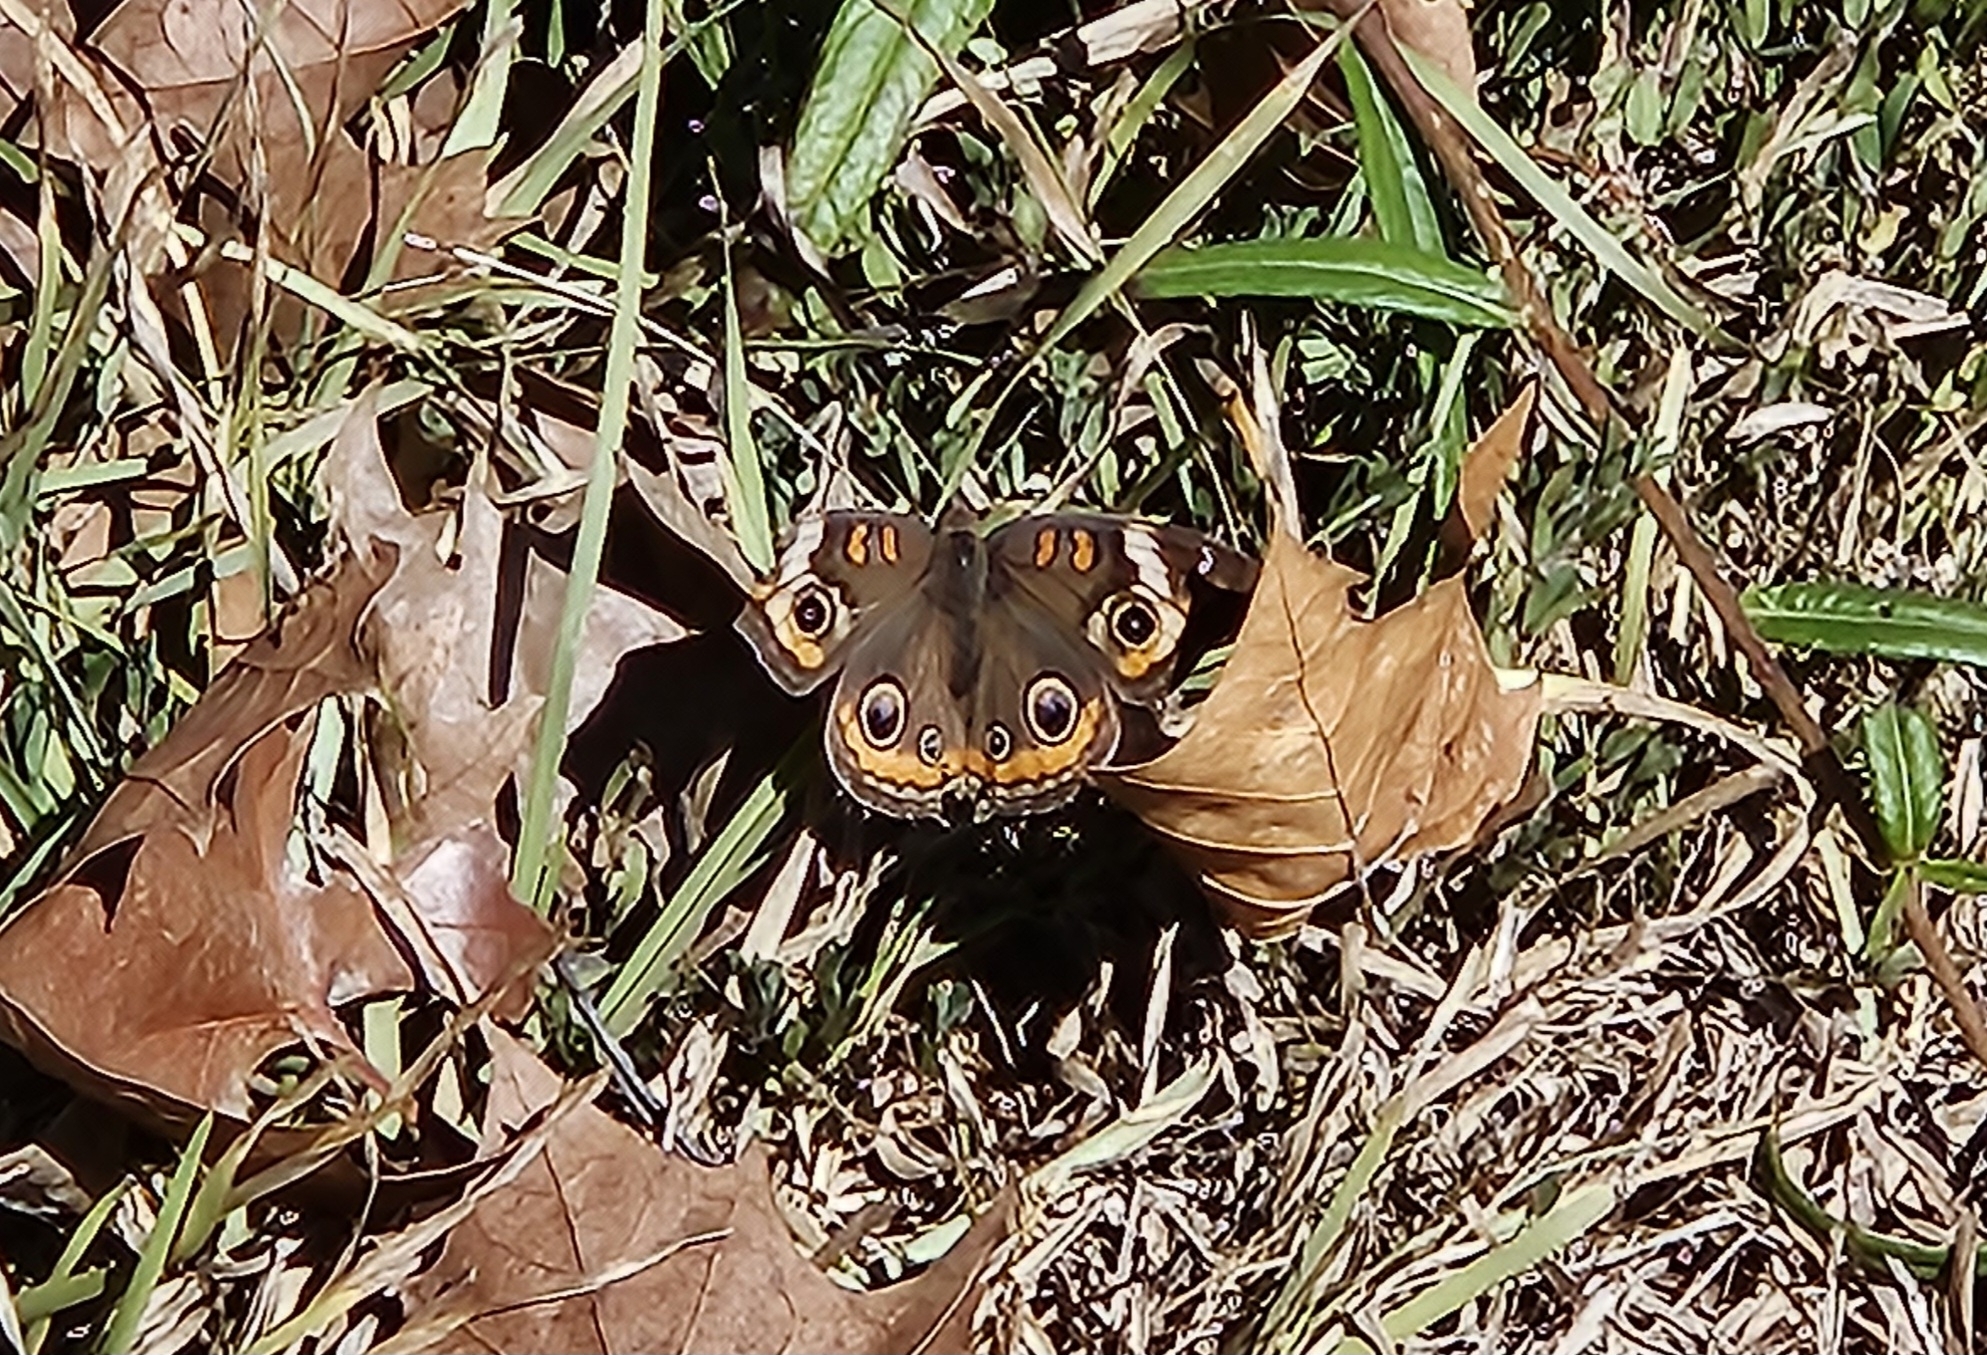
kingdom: Animalia
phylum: Arthropoda
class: Insecta
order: Lepidoptera
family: Nymphalidae
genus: Junonia
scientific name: Junonia coenia
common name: Common buckeye
